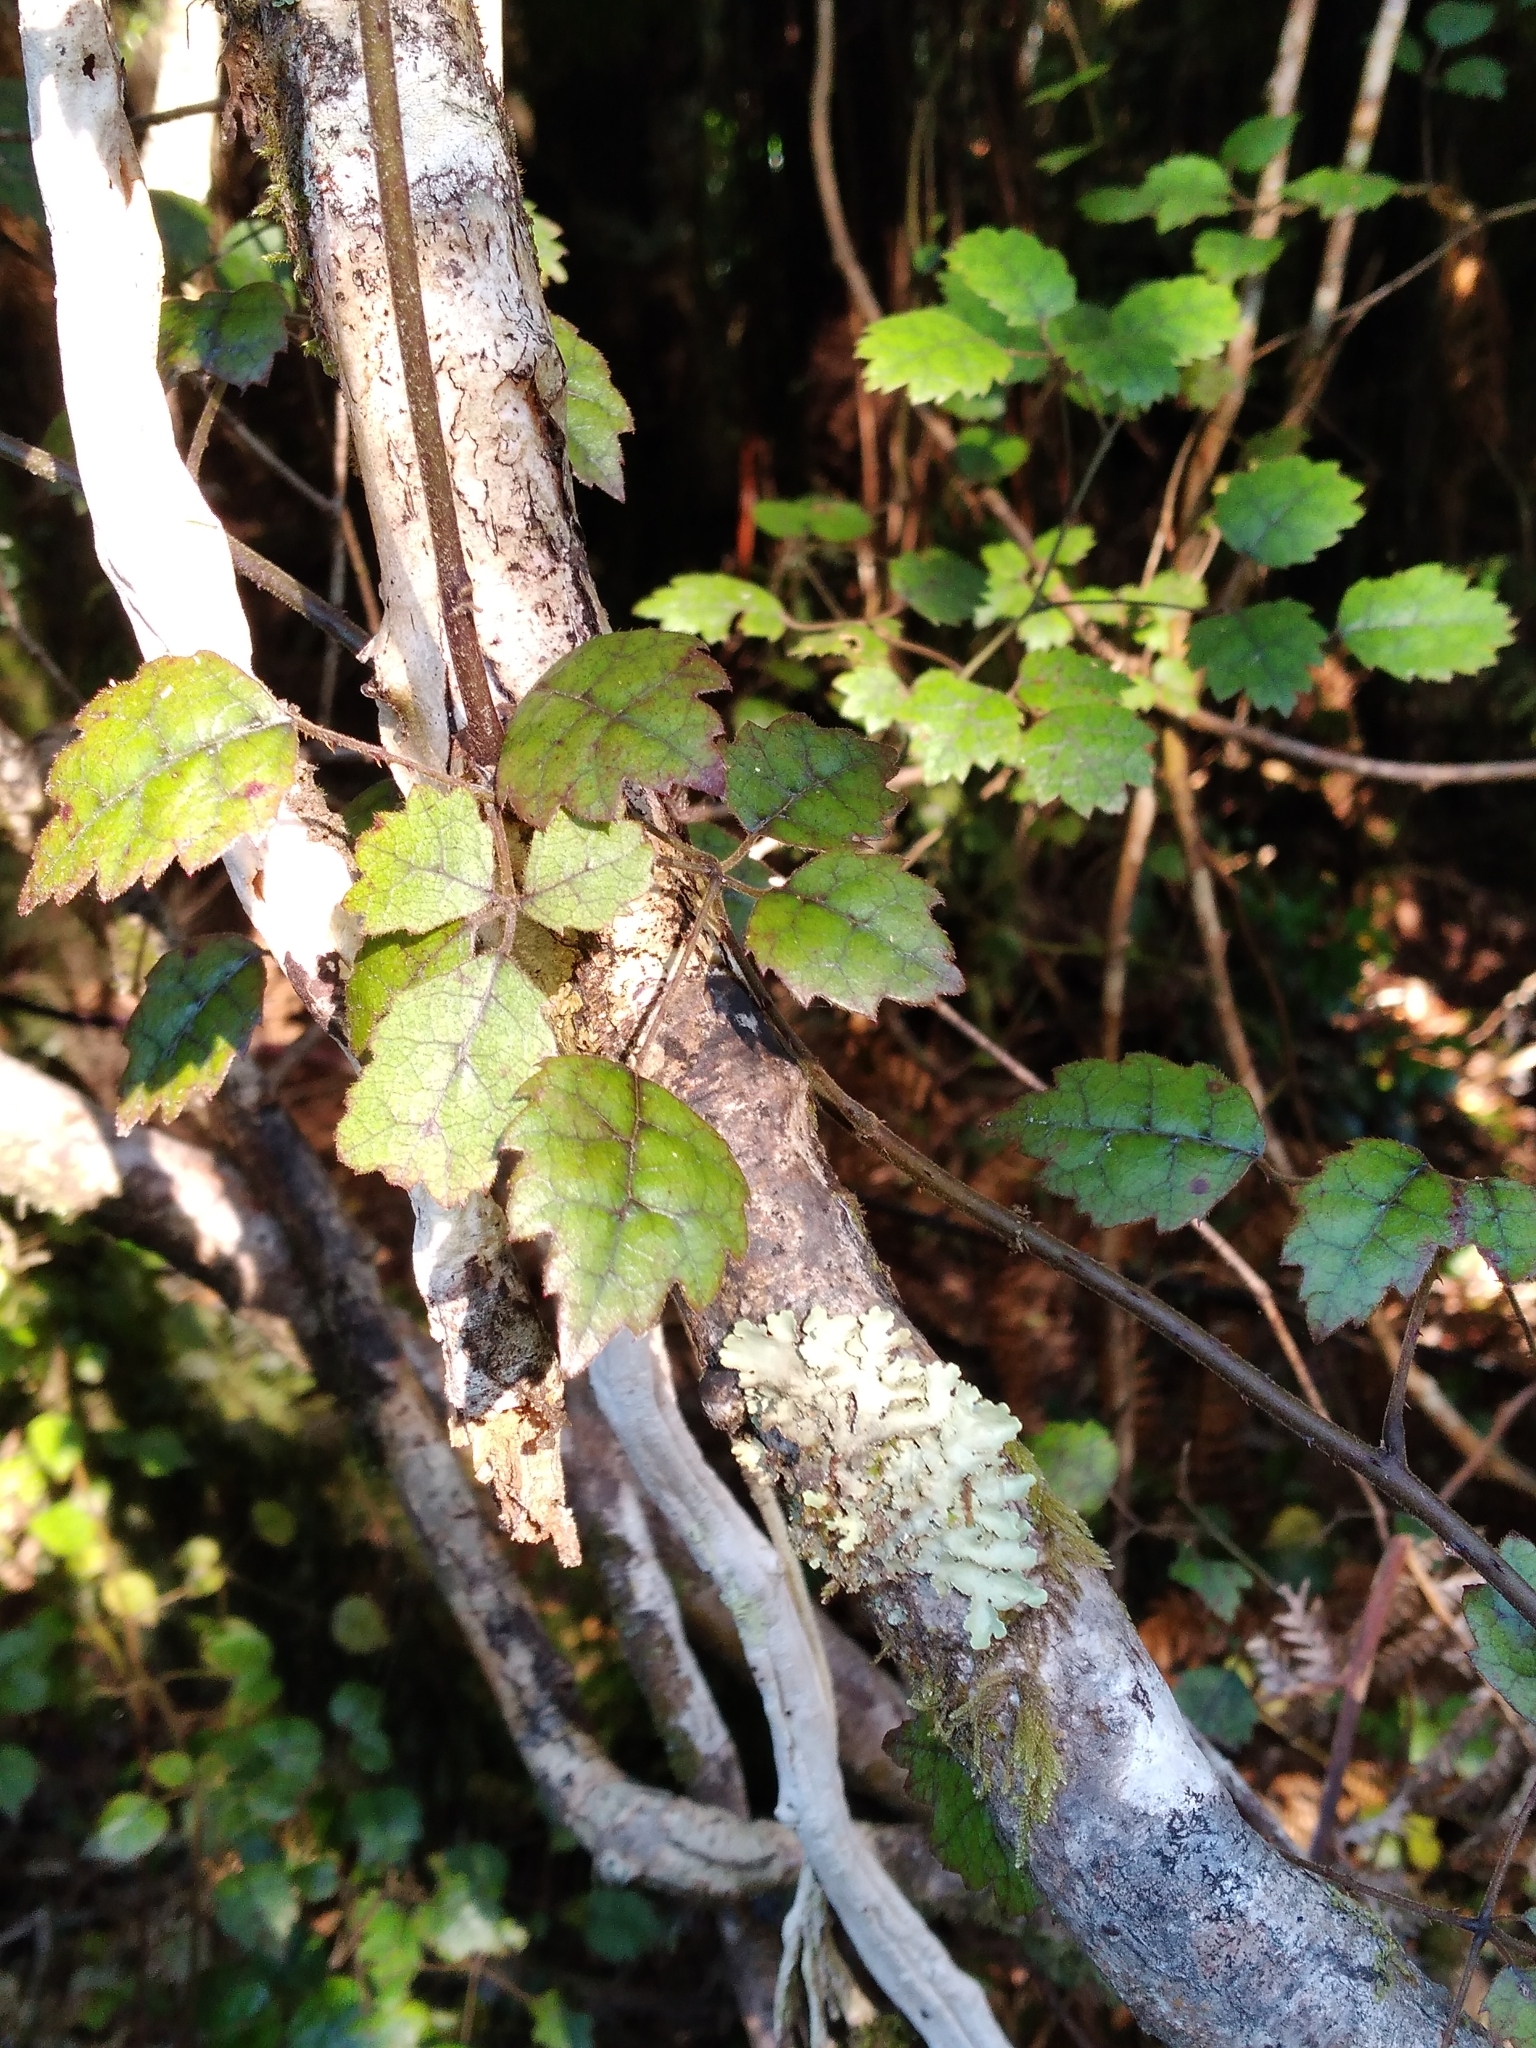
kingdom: Plantae
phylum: Tracheophyta
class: Magnoliopsida
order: Rosales
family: Rosaceae
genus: Rubus
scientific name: Rubus australis
